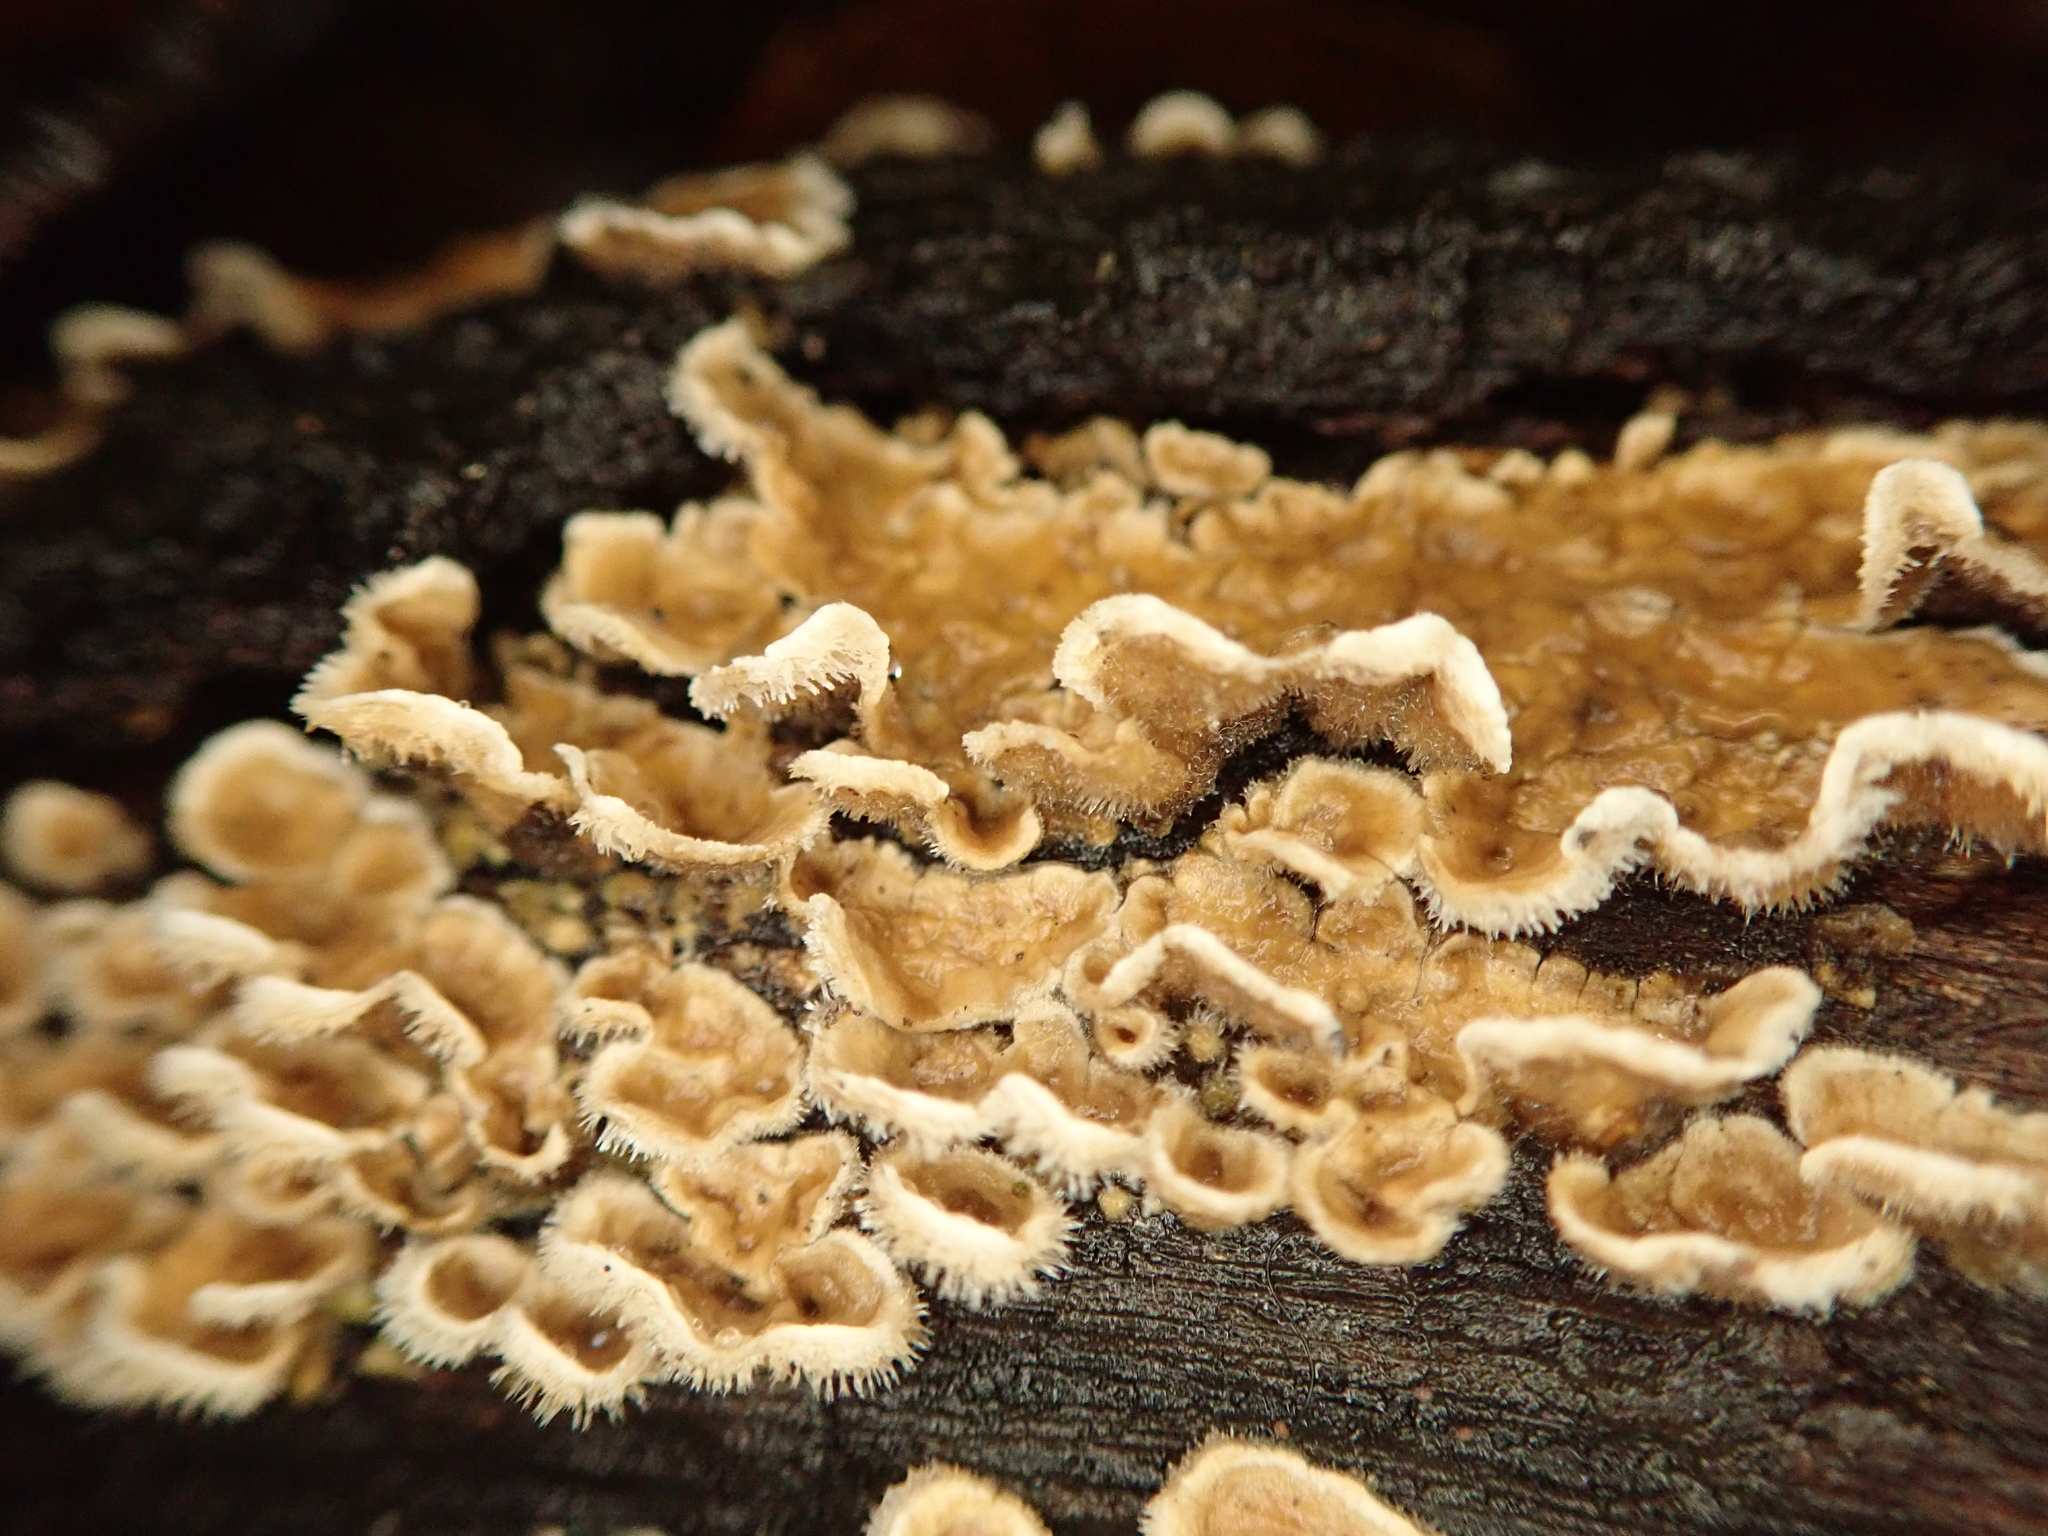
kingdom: Fungi
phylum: Basidiomycota
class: Agaricomycetes
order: Russulales
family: Stereaceae
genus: Stereum
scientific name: Stereum ochraceoflavum
